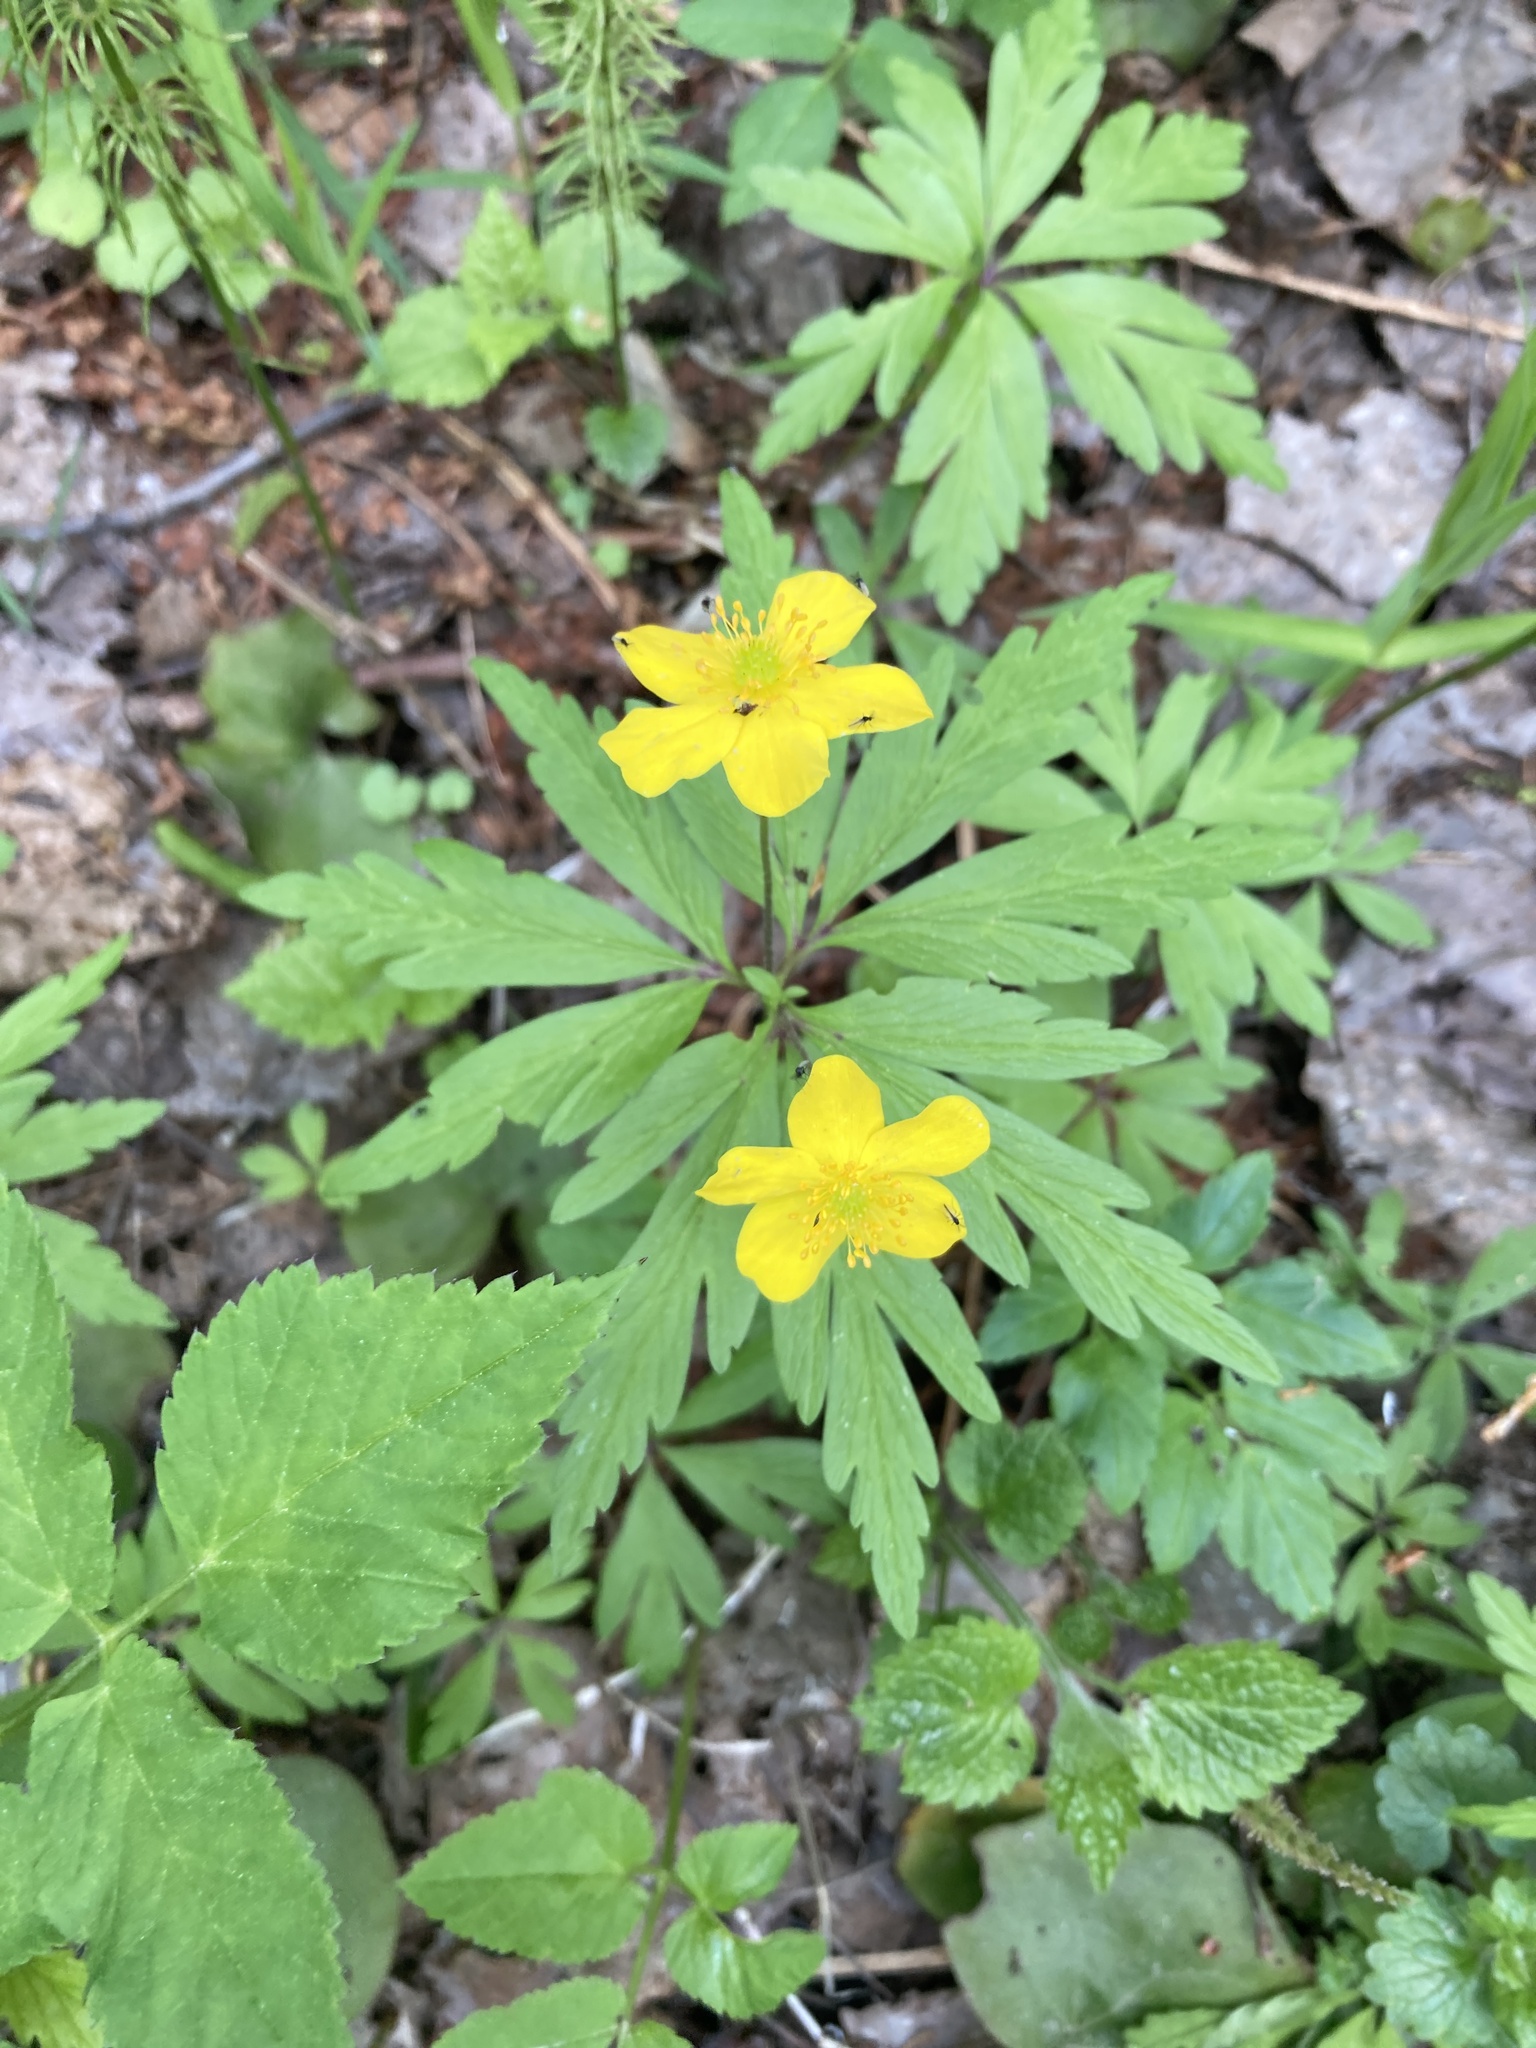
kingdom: Plantae
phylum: Tracheophyta
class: Magnoliopsida
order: Ranunculales
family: Ranunculaceae
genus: Anemone
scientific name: Anemone ranunculoides
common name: Yellow anemone
